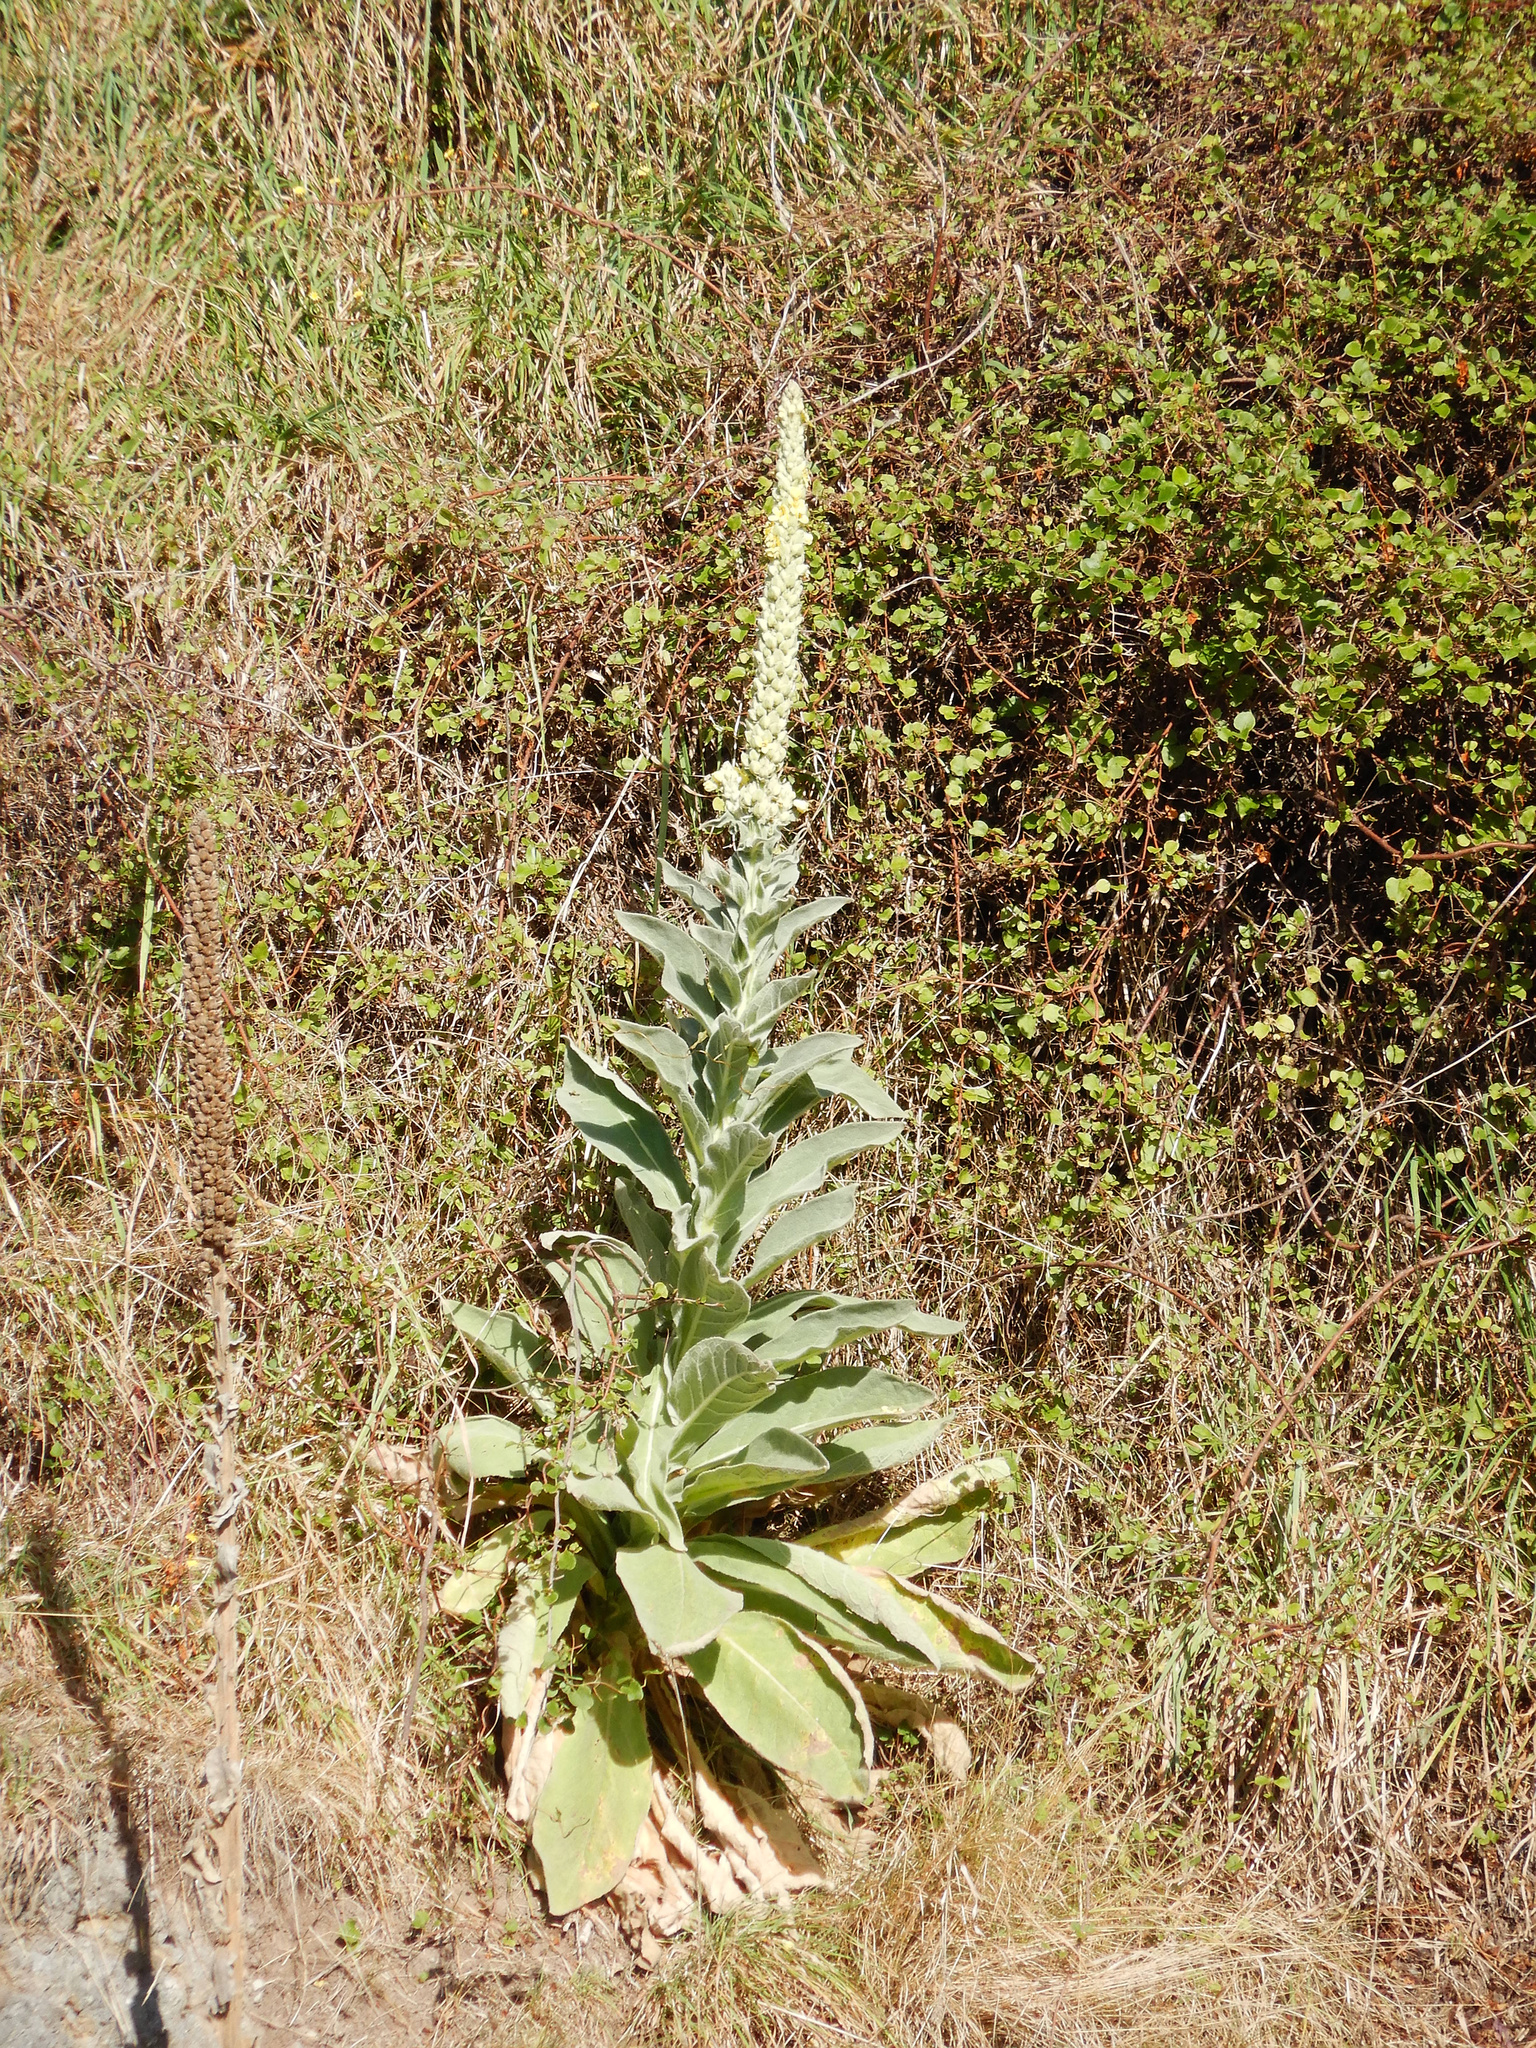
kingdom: Plantae
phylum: Tracheophyta
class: Magnoliopsida
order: Lamiales
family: Scrophulariaceae
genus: Verbascum
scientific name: Verbascum thapsus
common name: Common mullein
